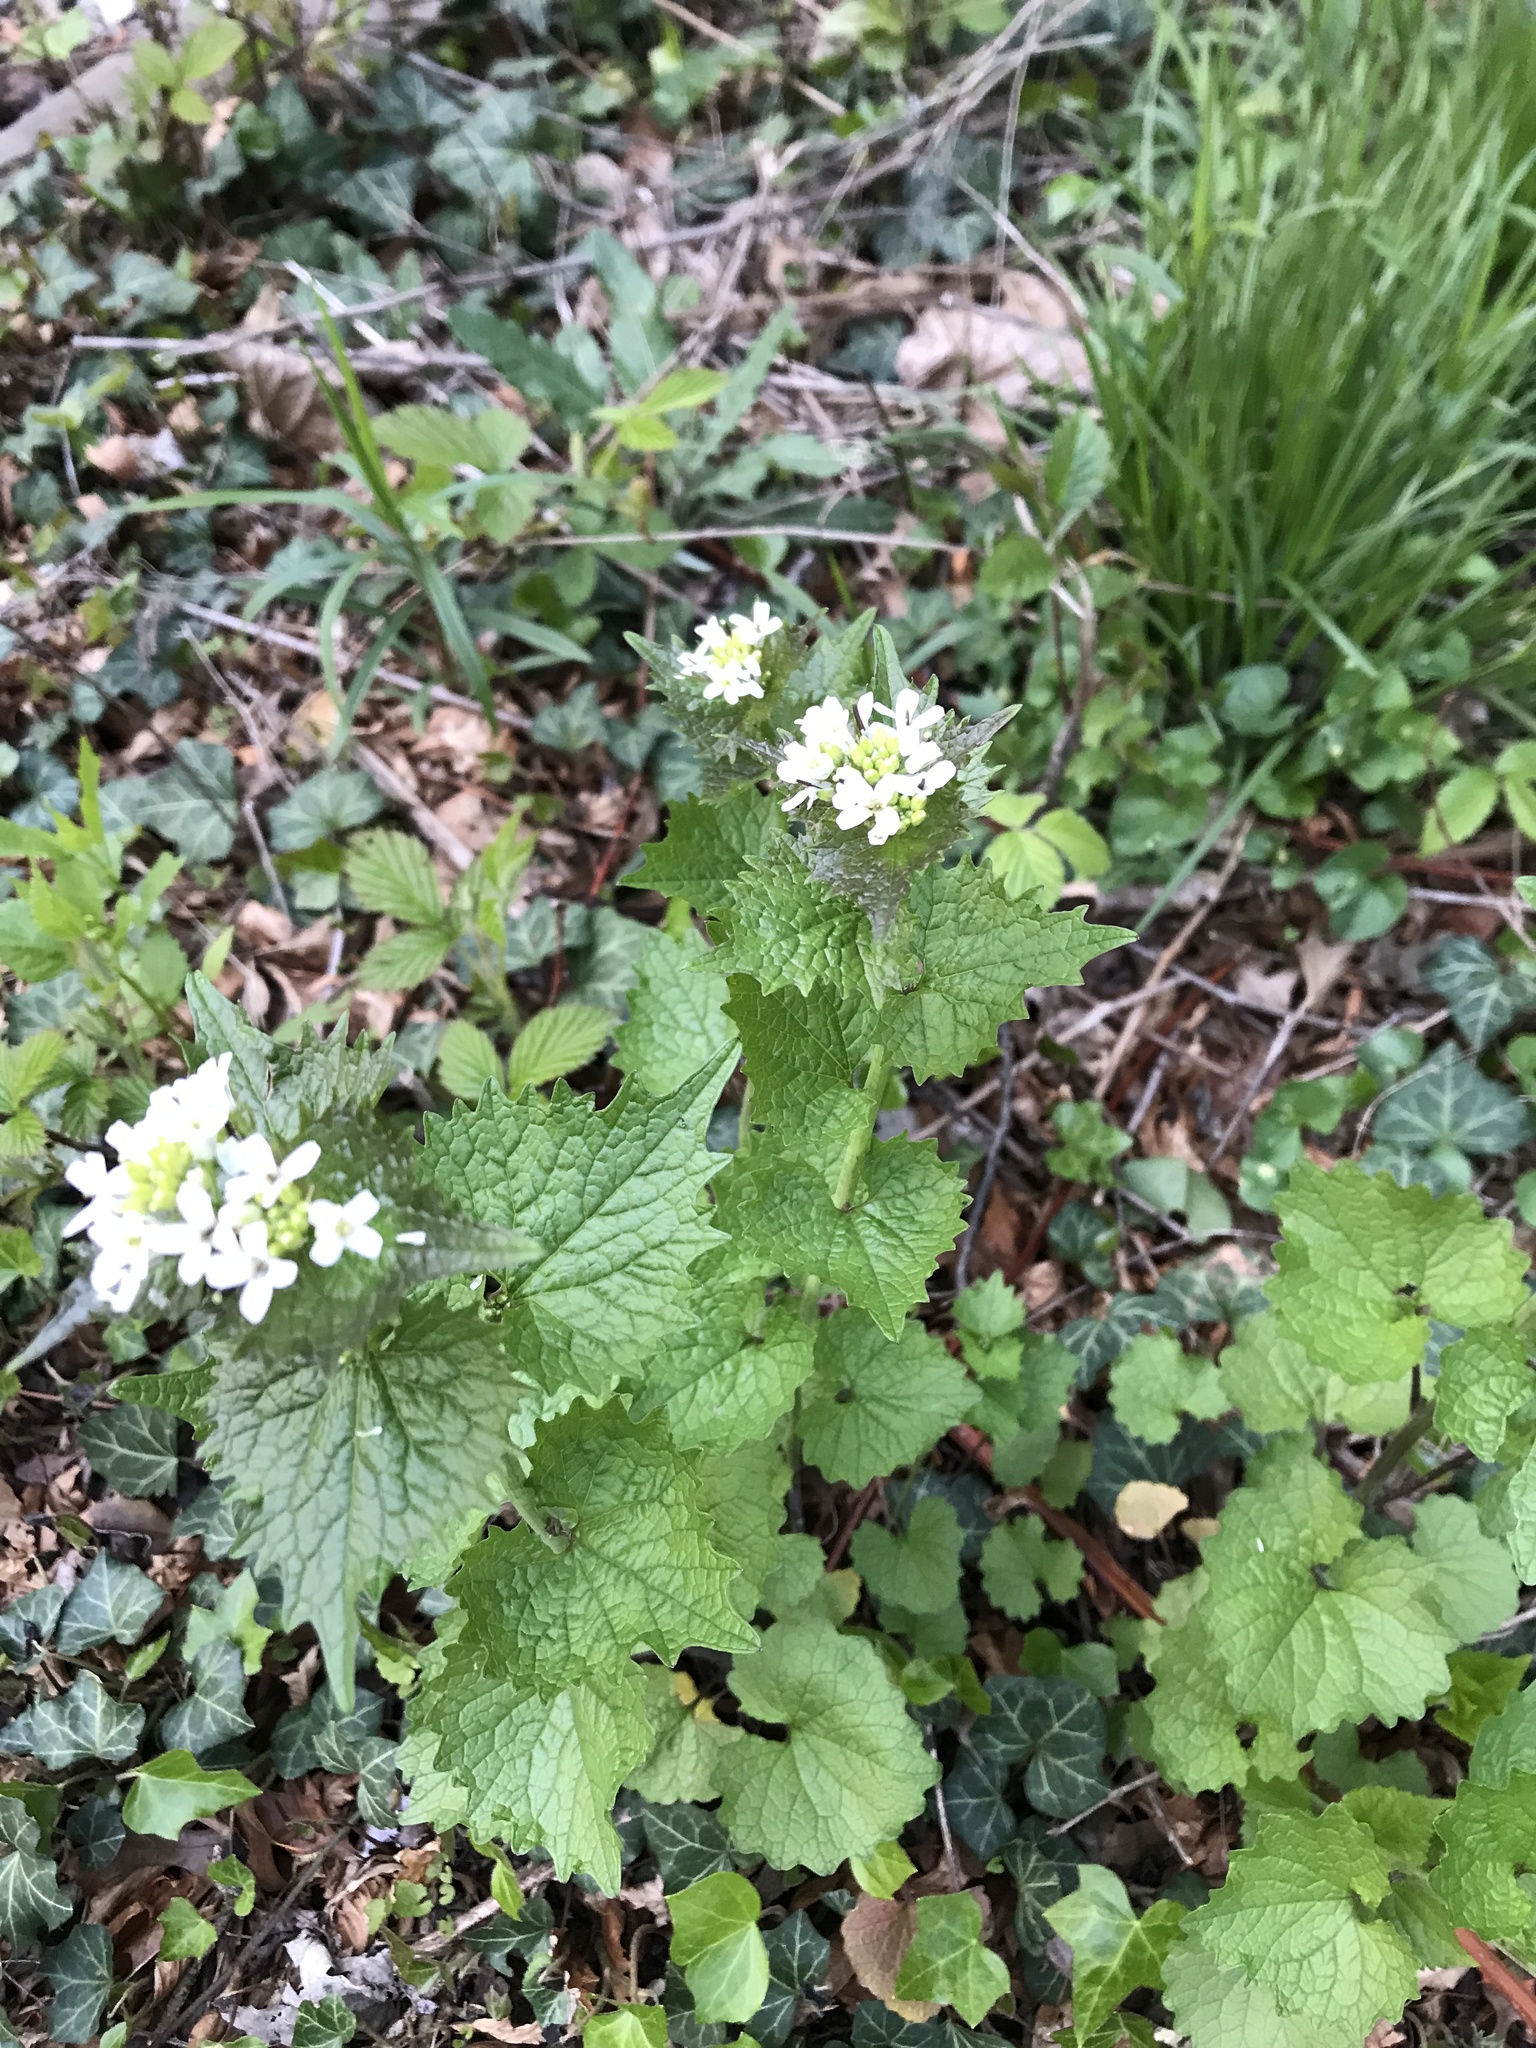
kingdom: Plantae
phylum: Tracheophyta
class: Magnoliopsida
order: Brassicales
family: Brassicaceae
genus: Alliaria
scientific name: Alliaria petiolata
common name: Garlic mustard
